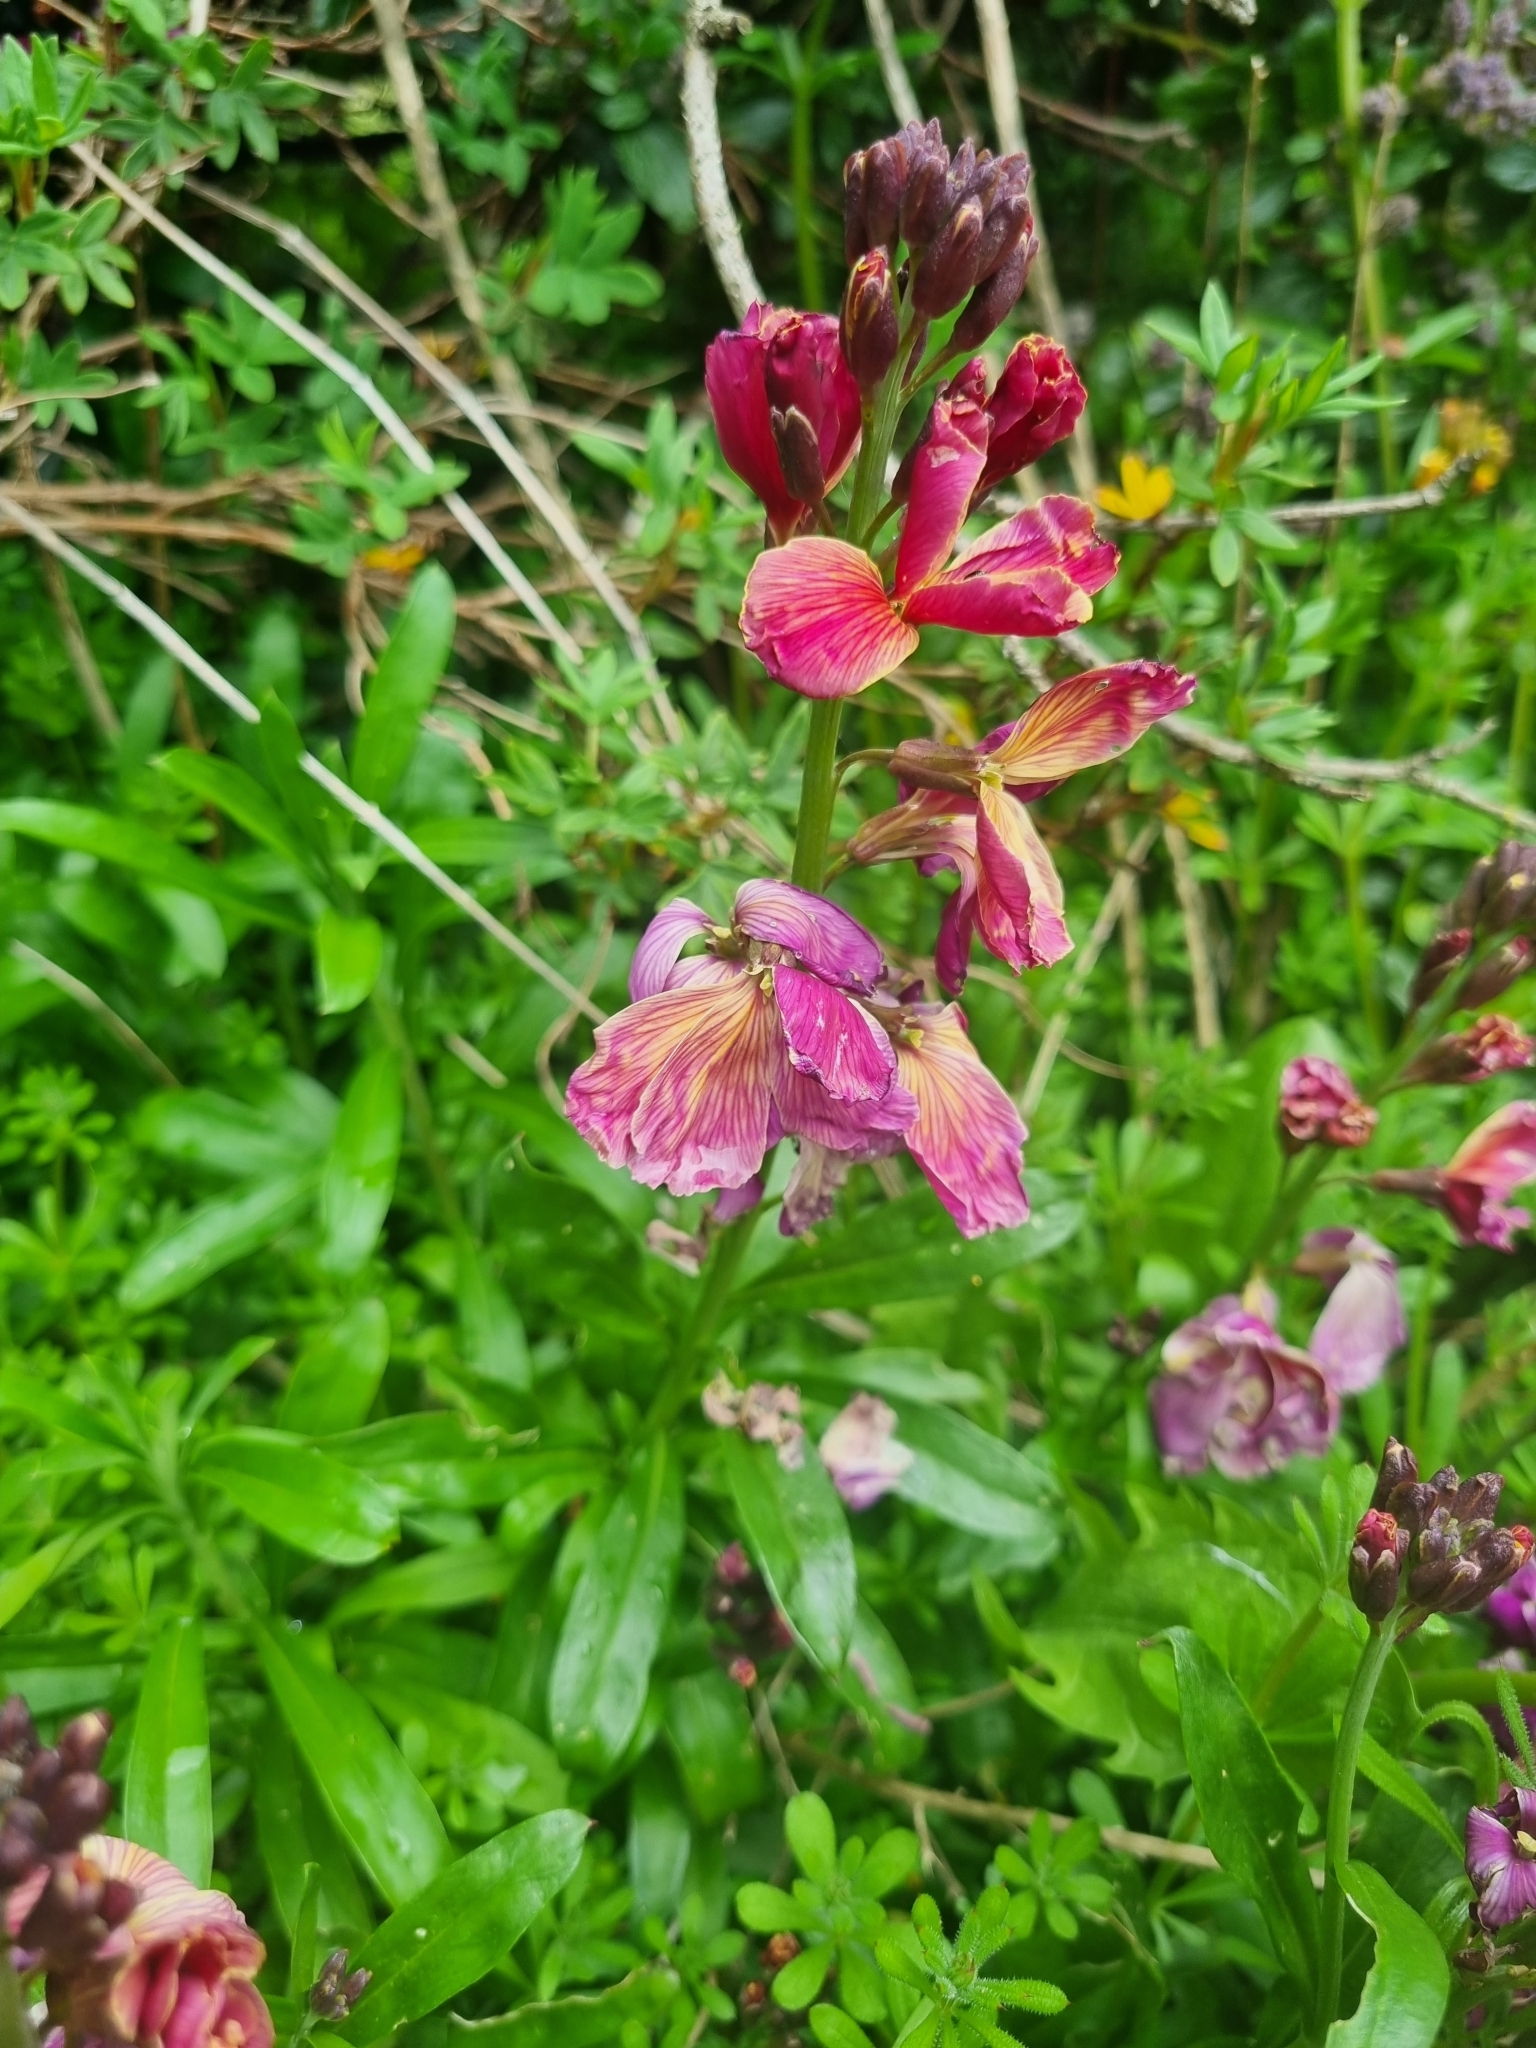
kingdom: Plantae
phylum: Tracheophyta
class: Magnoliopsida
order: Brassicales
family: Brassicaceae
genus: Erysimum
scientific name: Erysimum cheiri
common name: Wallflower
